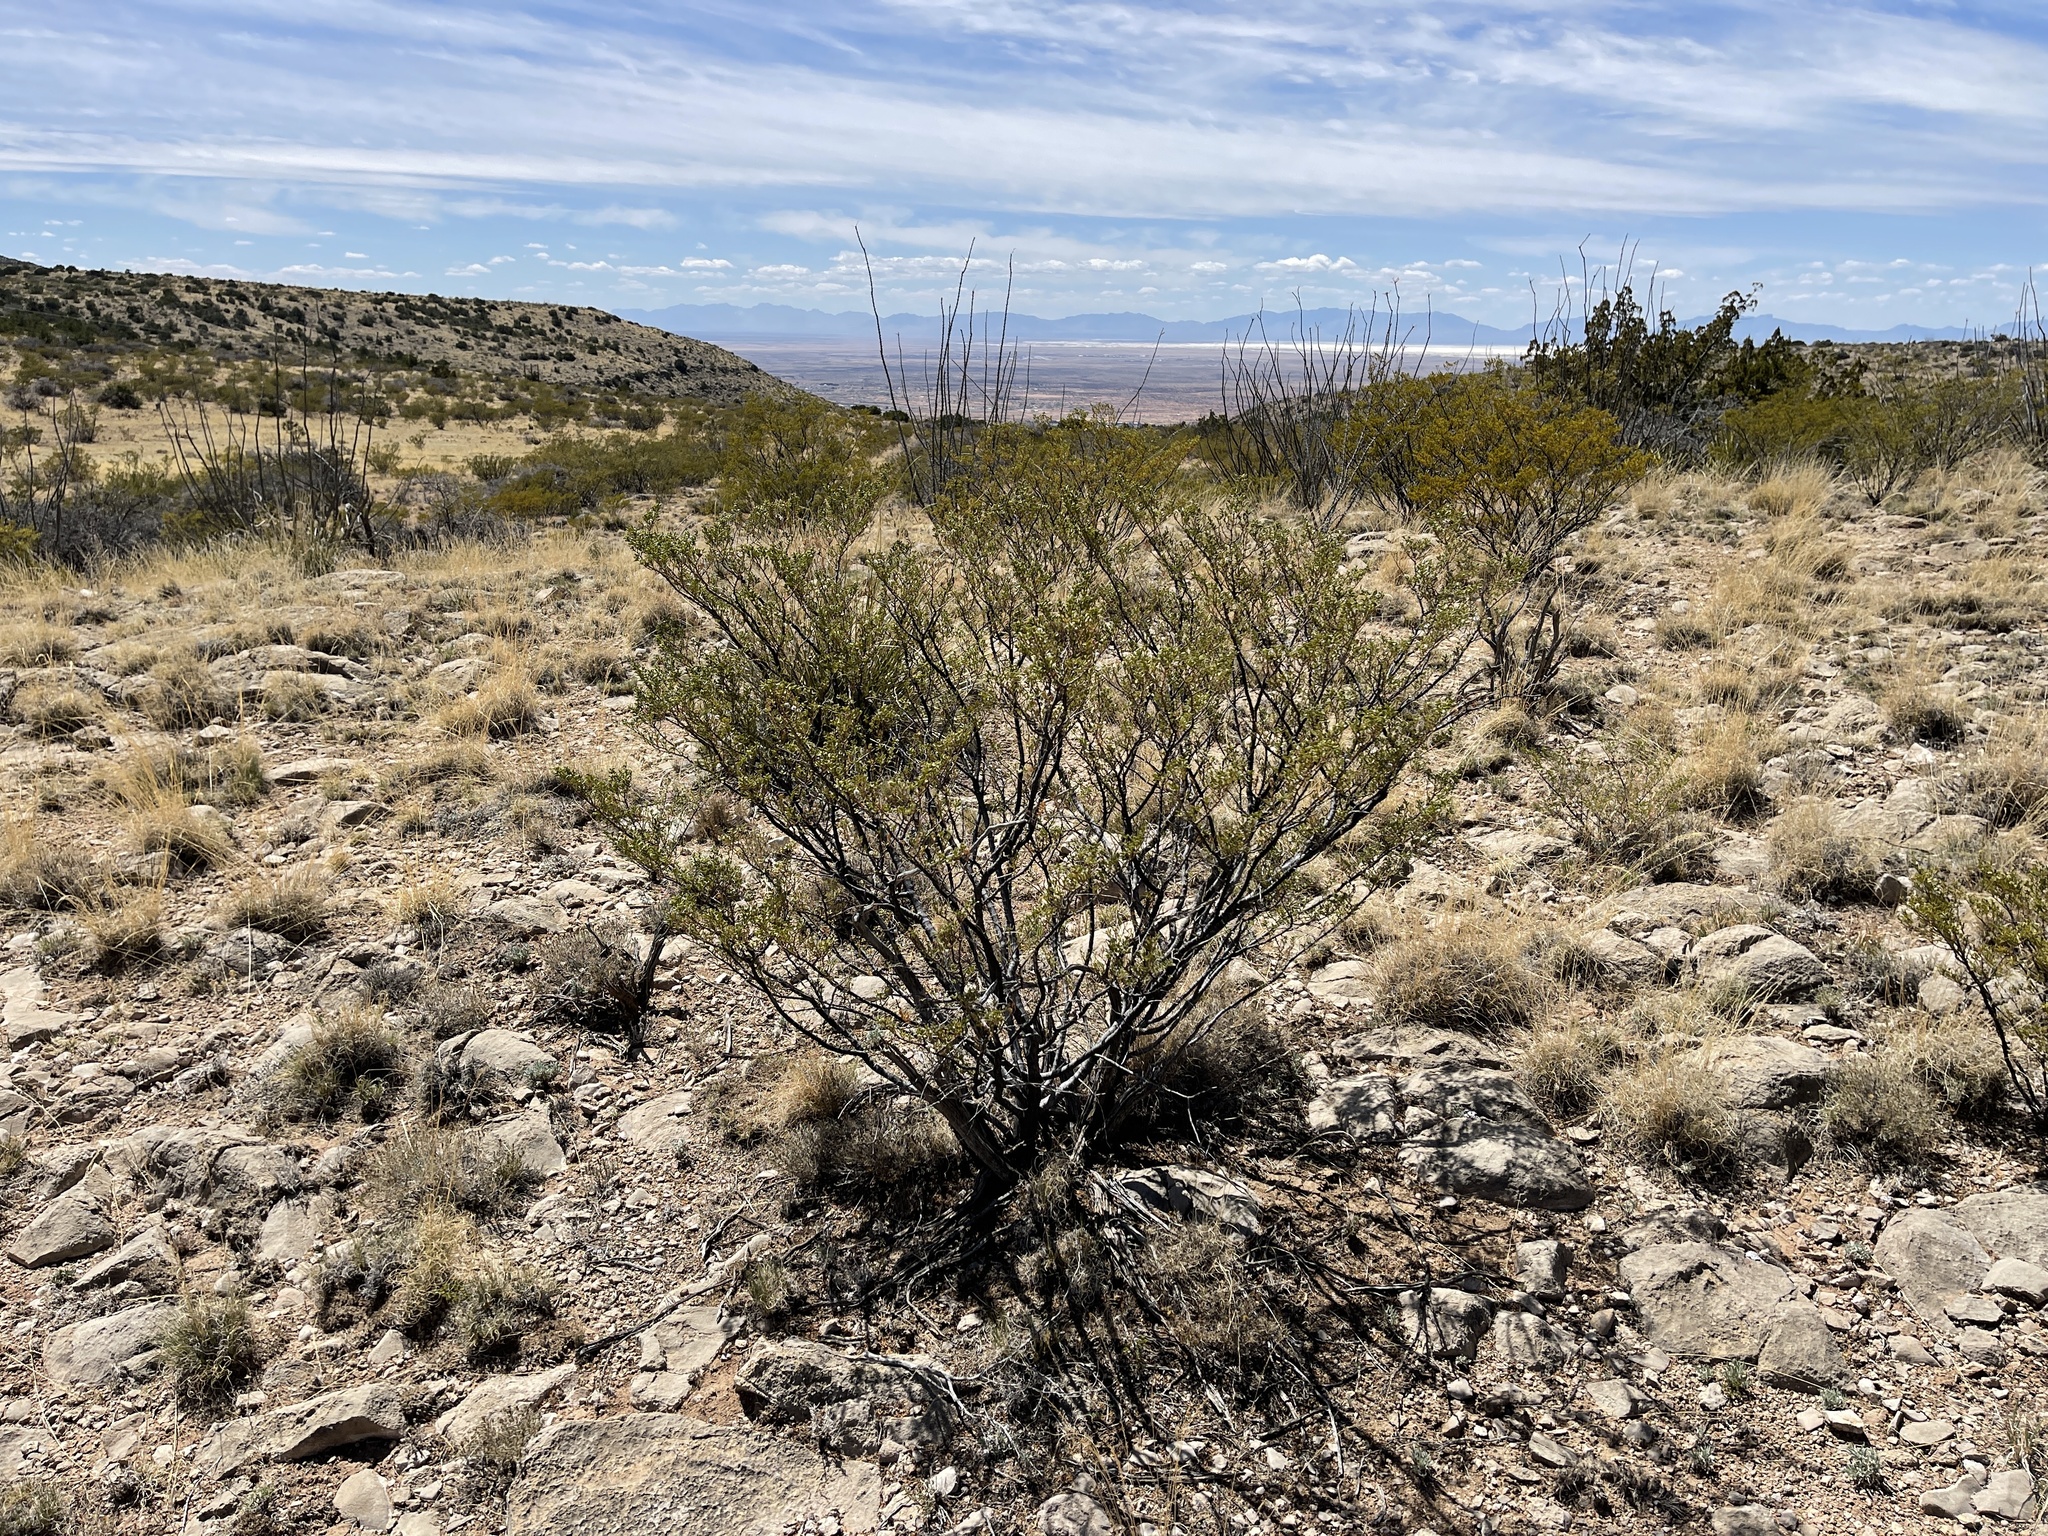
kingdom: Plantae
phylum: Tracheophyta
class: Magnoliopsida
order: Zygophyllales
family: Zygophyllaceae
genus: Larrea
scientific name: Larrea tridentata
